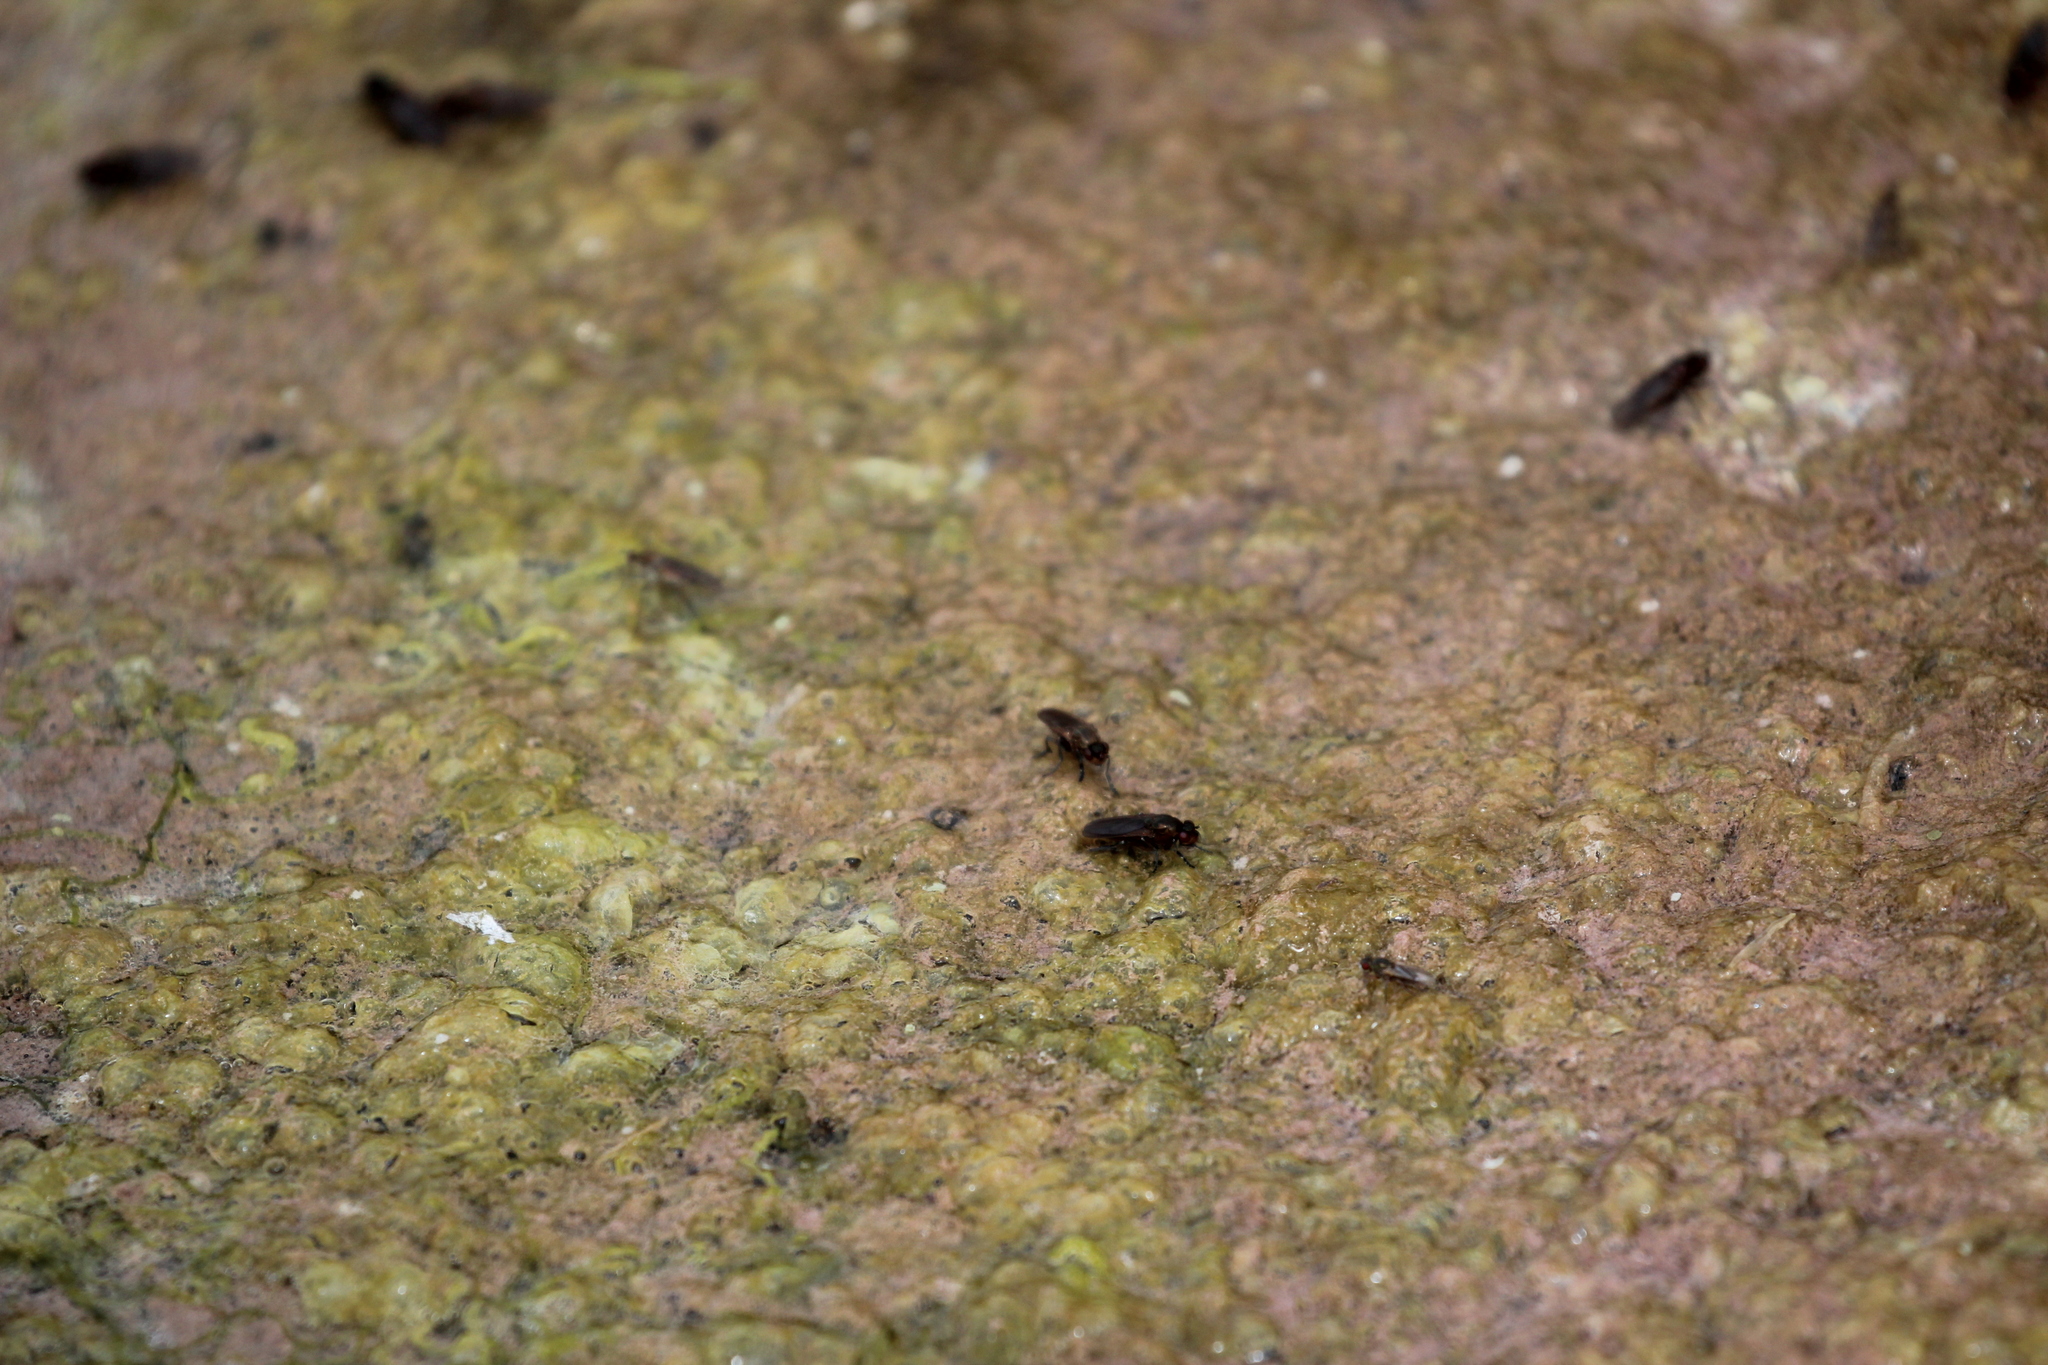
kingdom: Animalia
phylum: Arthropoda
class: Insecta
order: Diptera
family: Ephydridae
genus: Cirrula
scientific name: Cirrula gigantea
